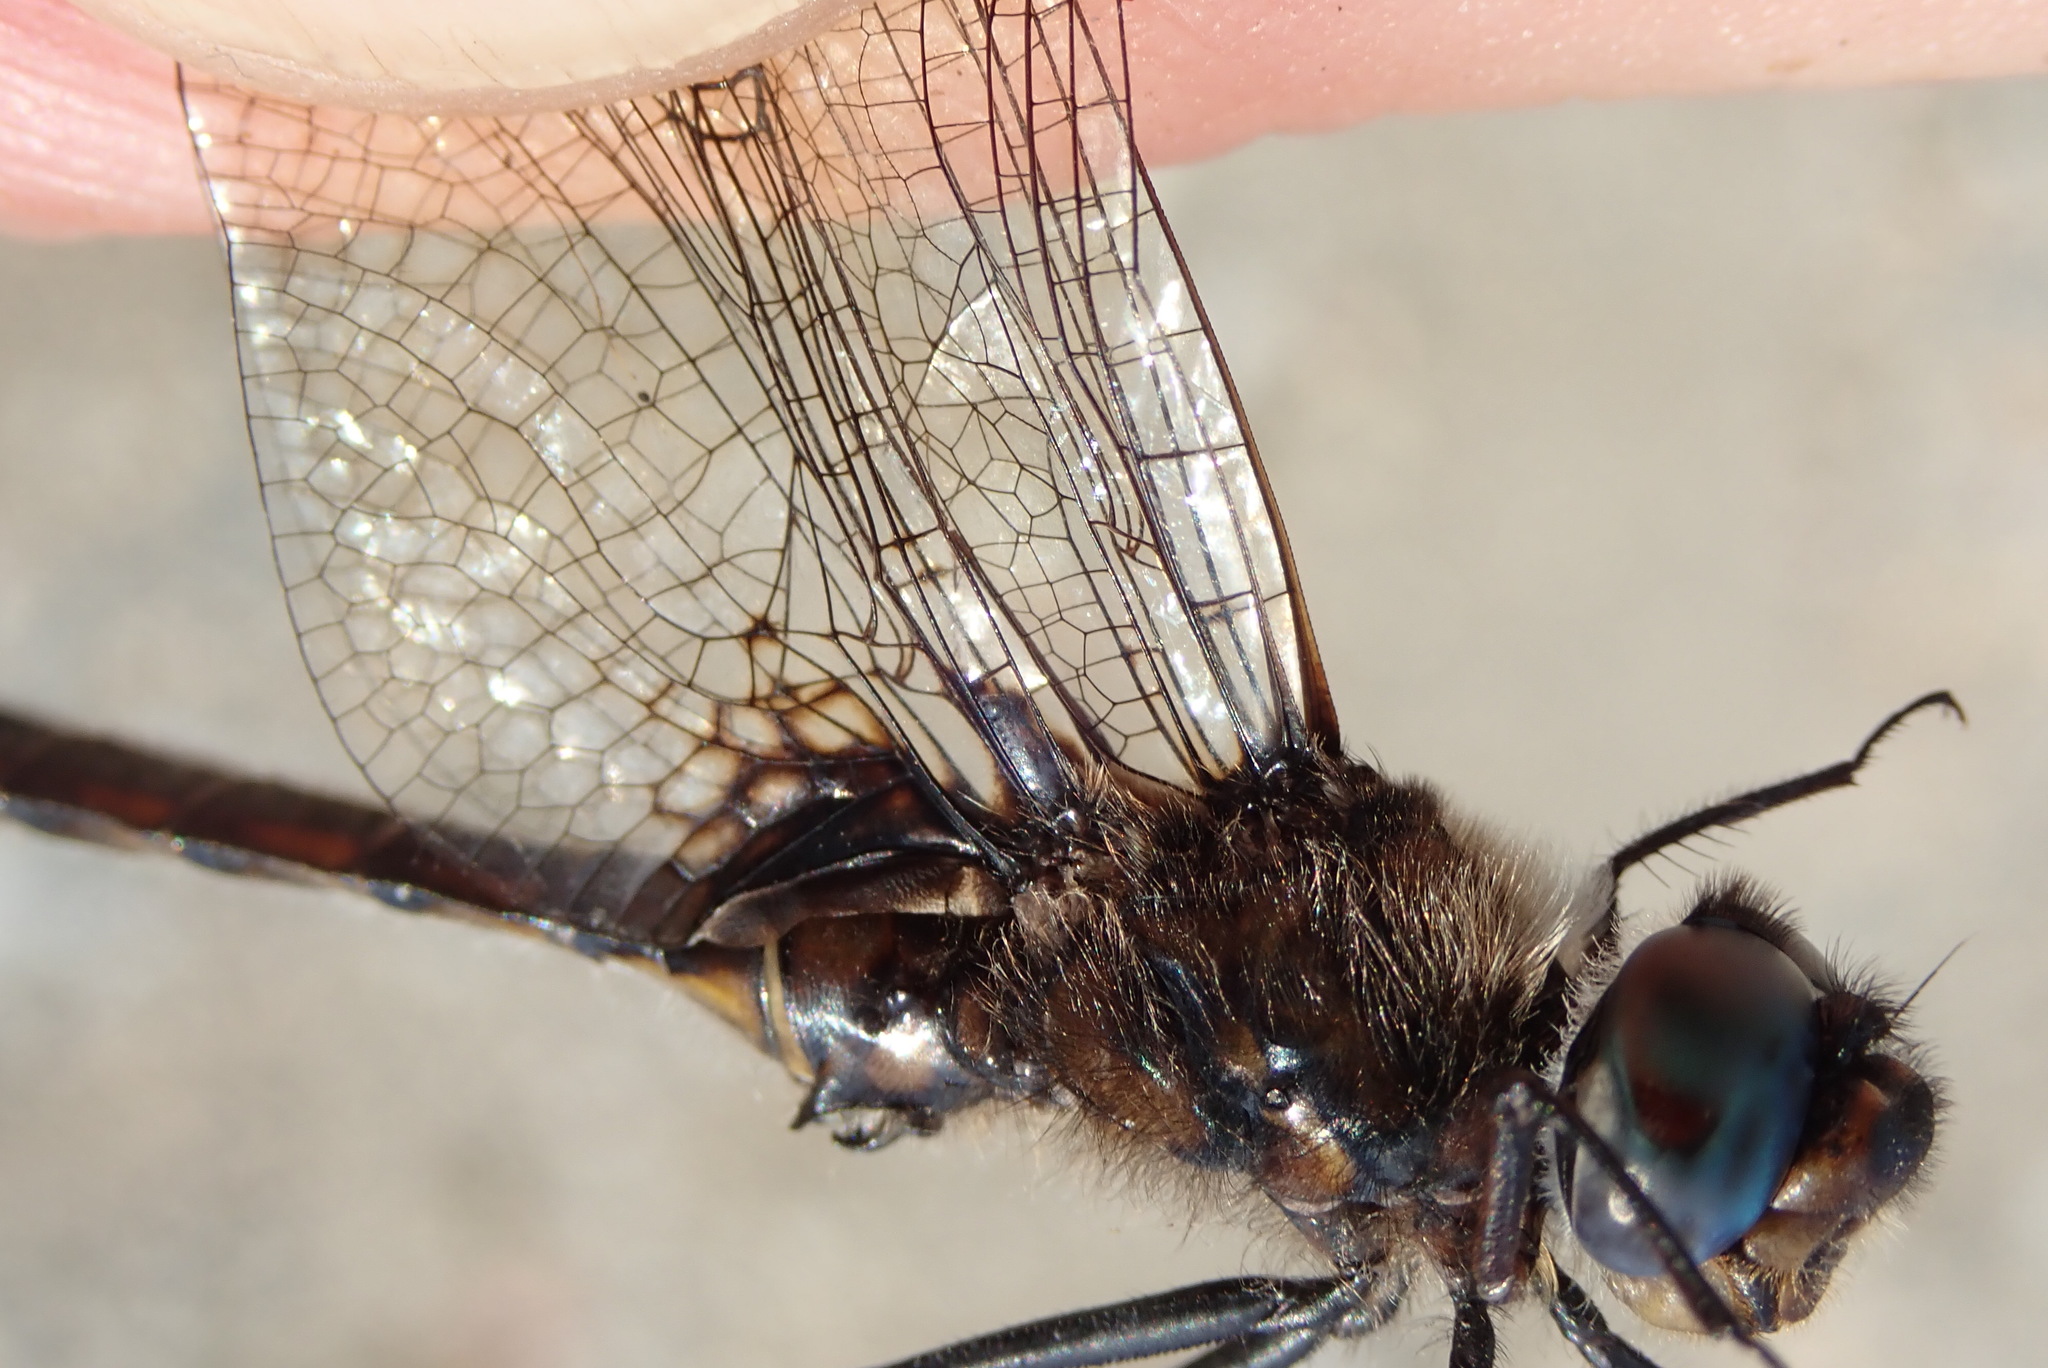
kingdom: Animalia
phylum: Arthropoda
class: Insecta
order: Odonata
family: Corduliidae
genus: Epitheca
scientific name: Epitheca spinigera
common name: Spiny baskettail
